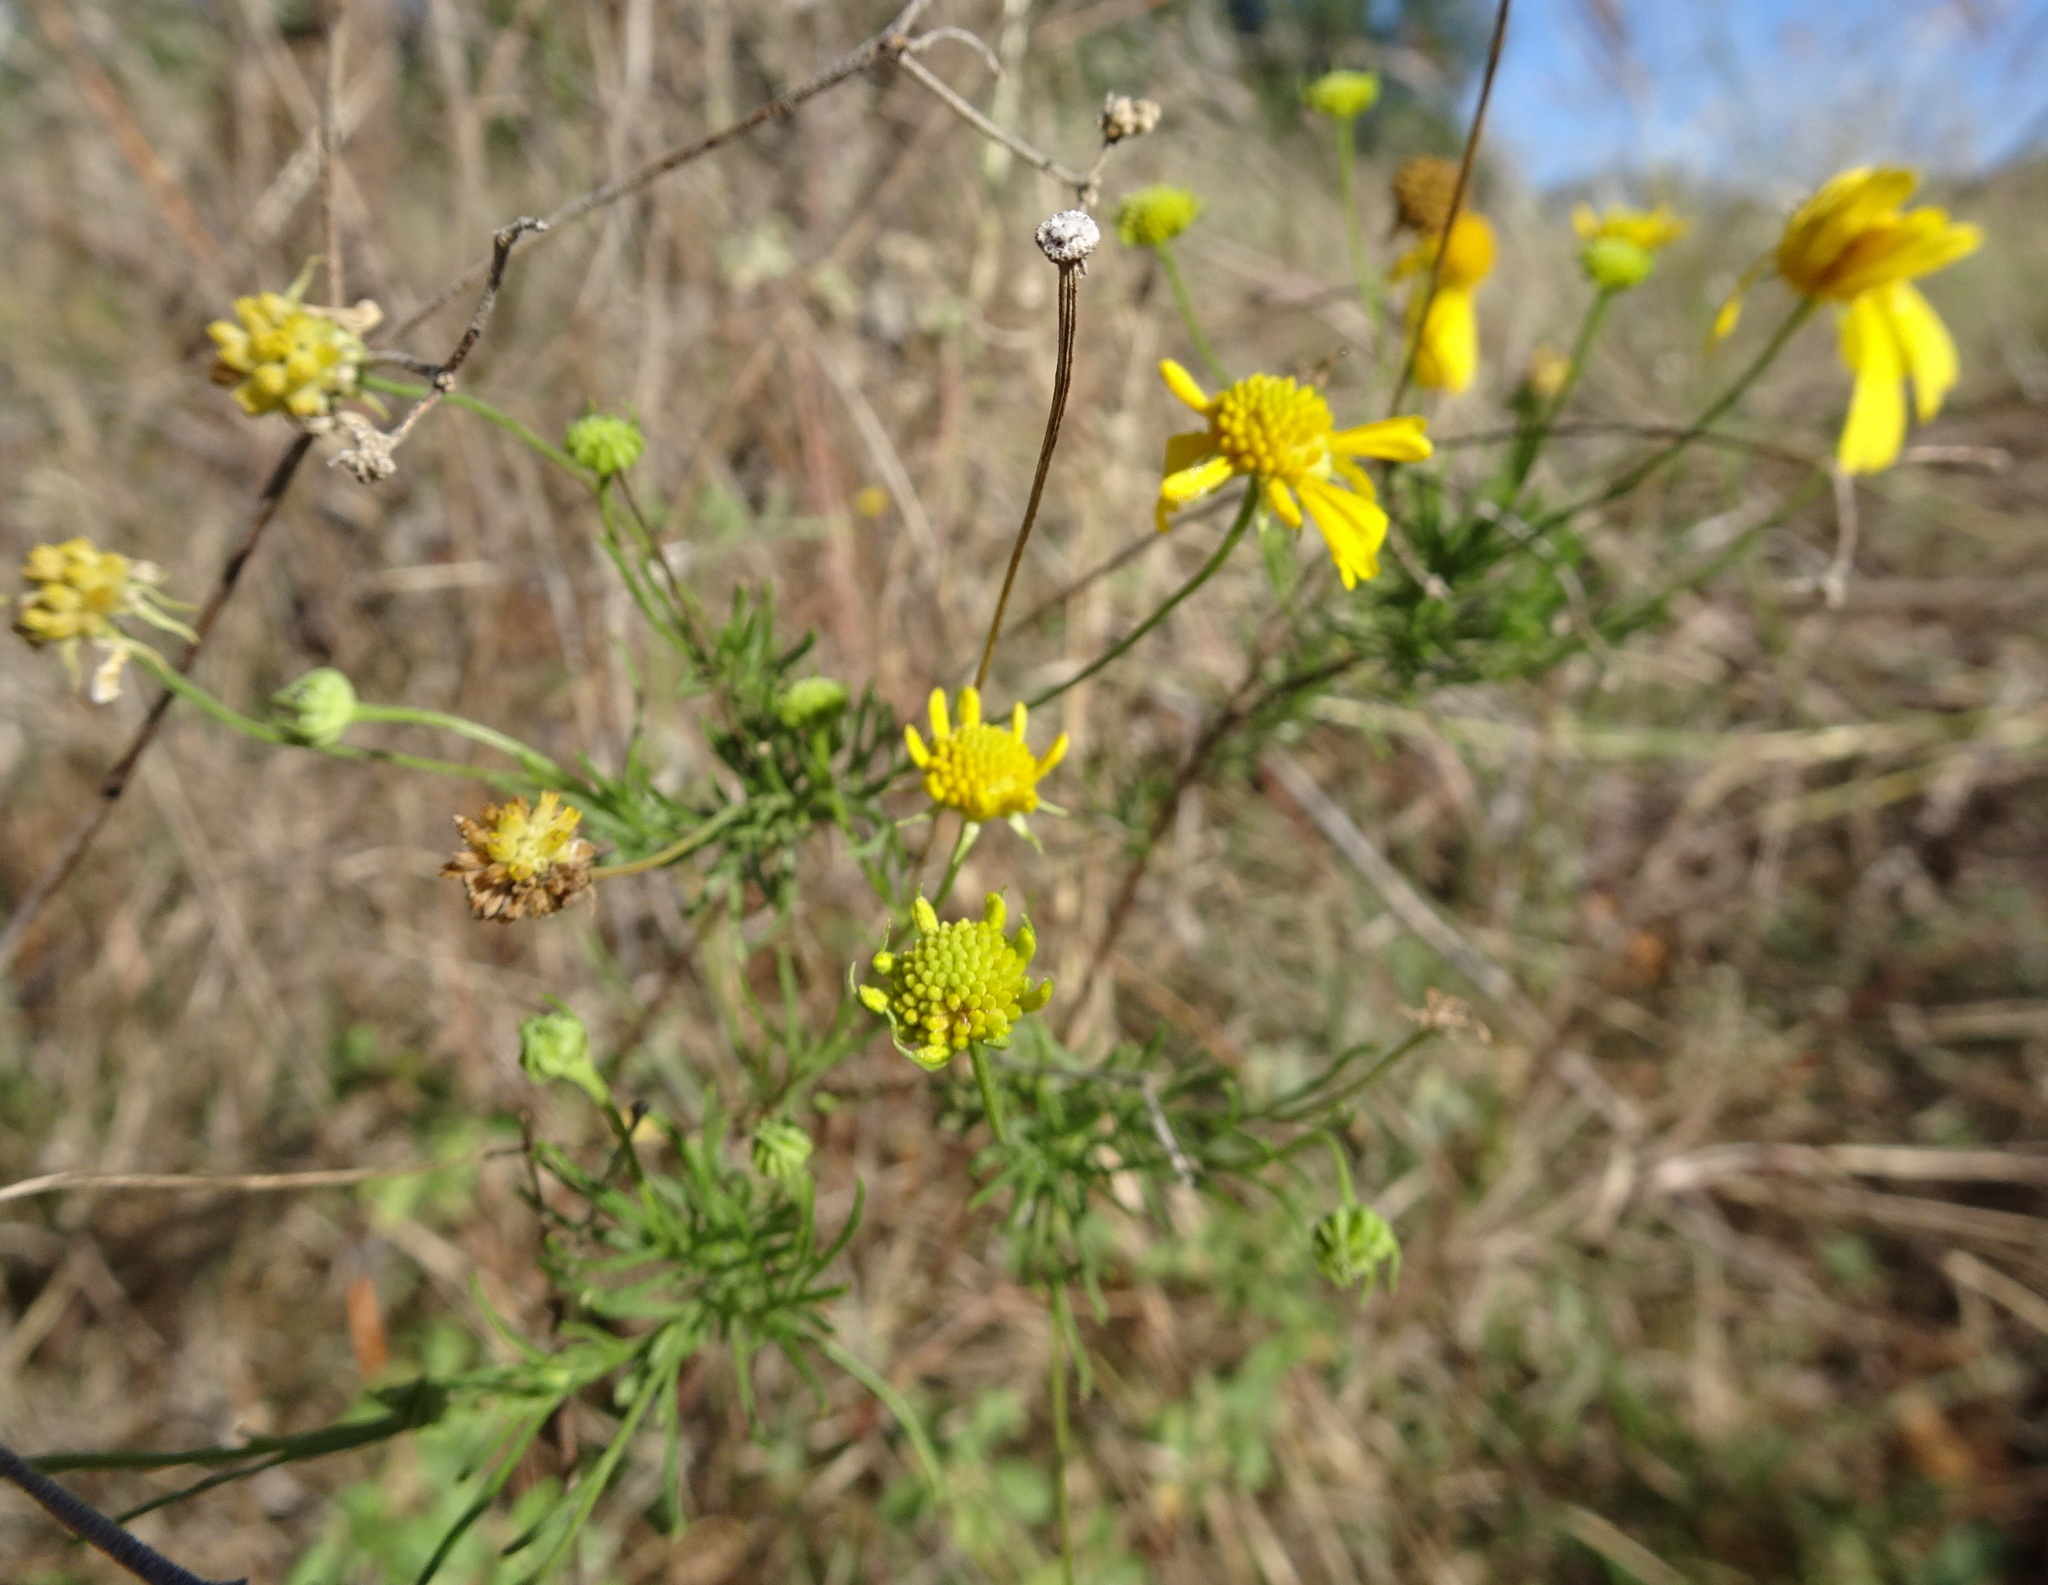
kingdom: Plantae
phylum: Tracheophyta
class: Magnoliopsida
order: Asterales
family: Asteraceae
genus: Helenium
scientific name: Helenium amarum
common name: Bitter sneezeweed
